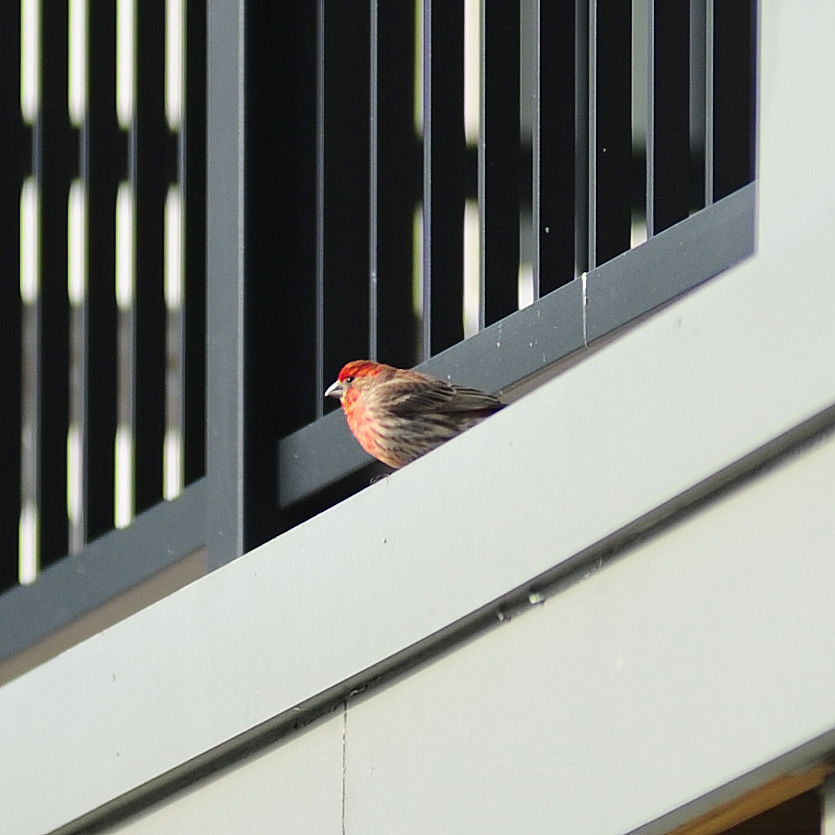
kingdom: Animalia
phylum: Chordata
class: Aves
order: Passeriformes
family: Fringillidae
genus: Haemorhous
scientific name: Haemorhous mexicanus
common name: House finch
